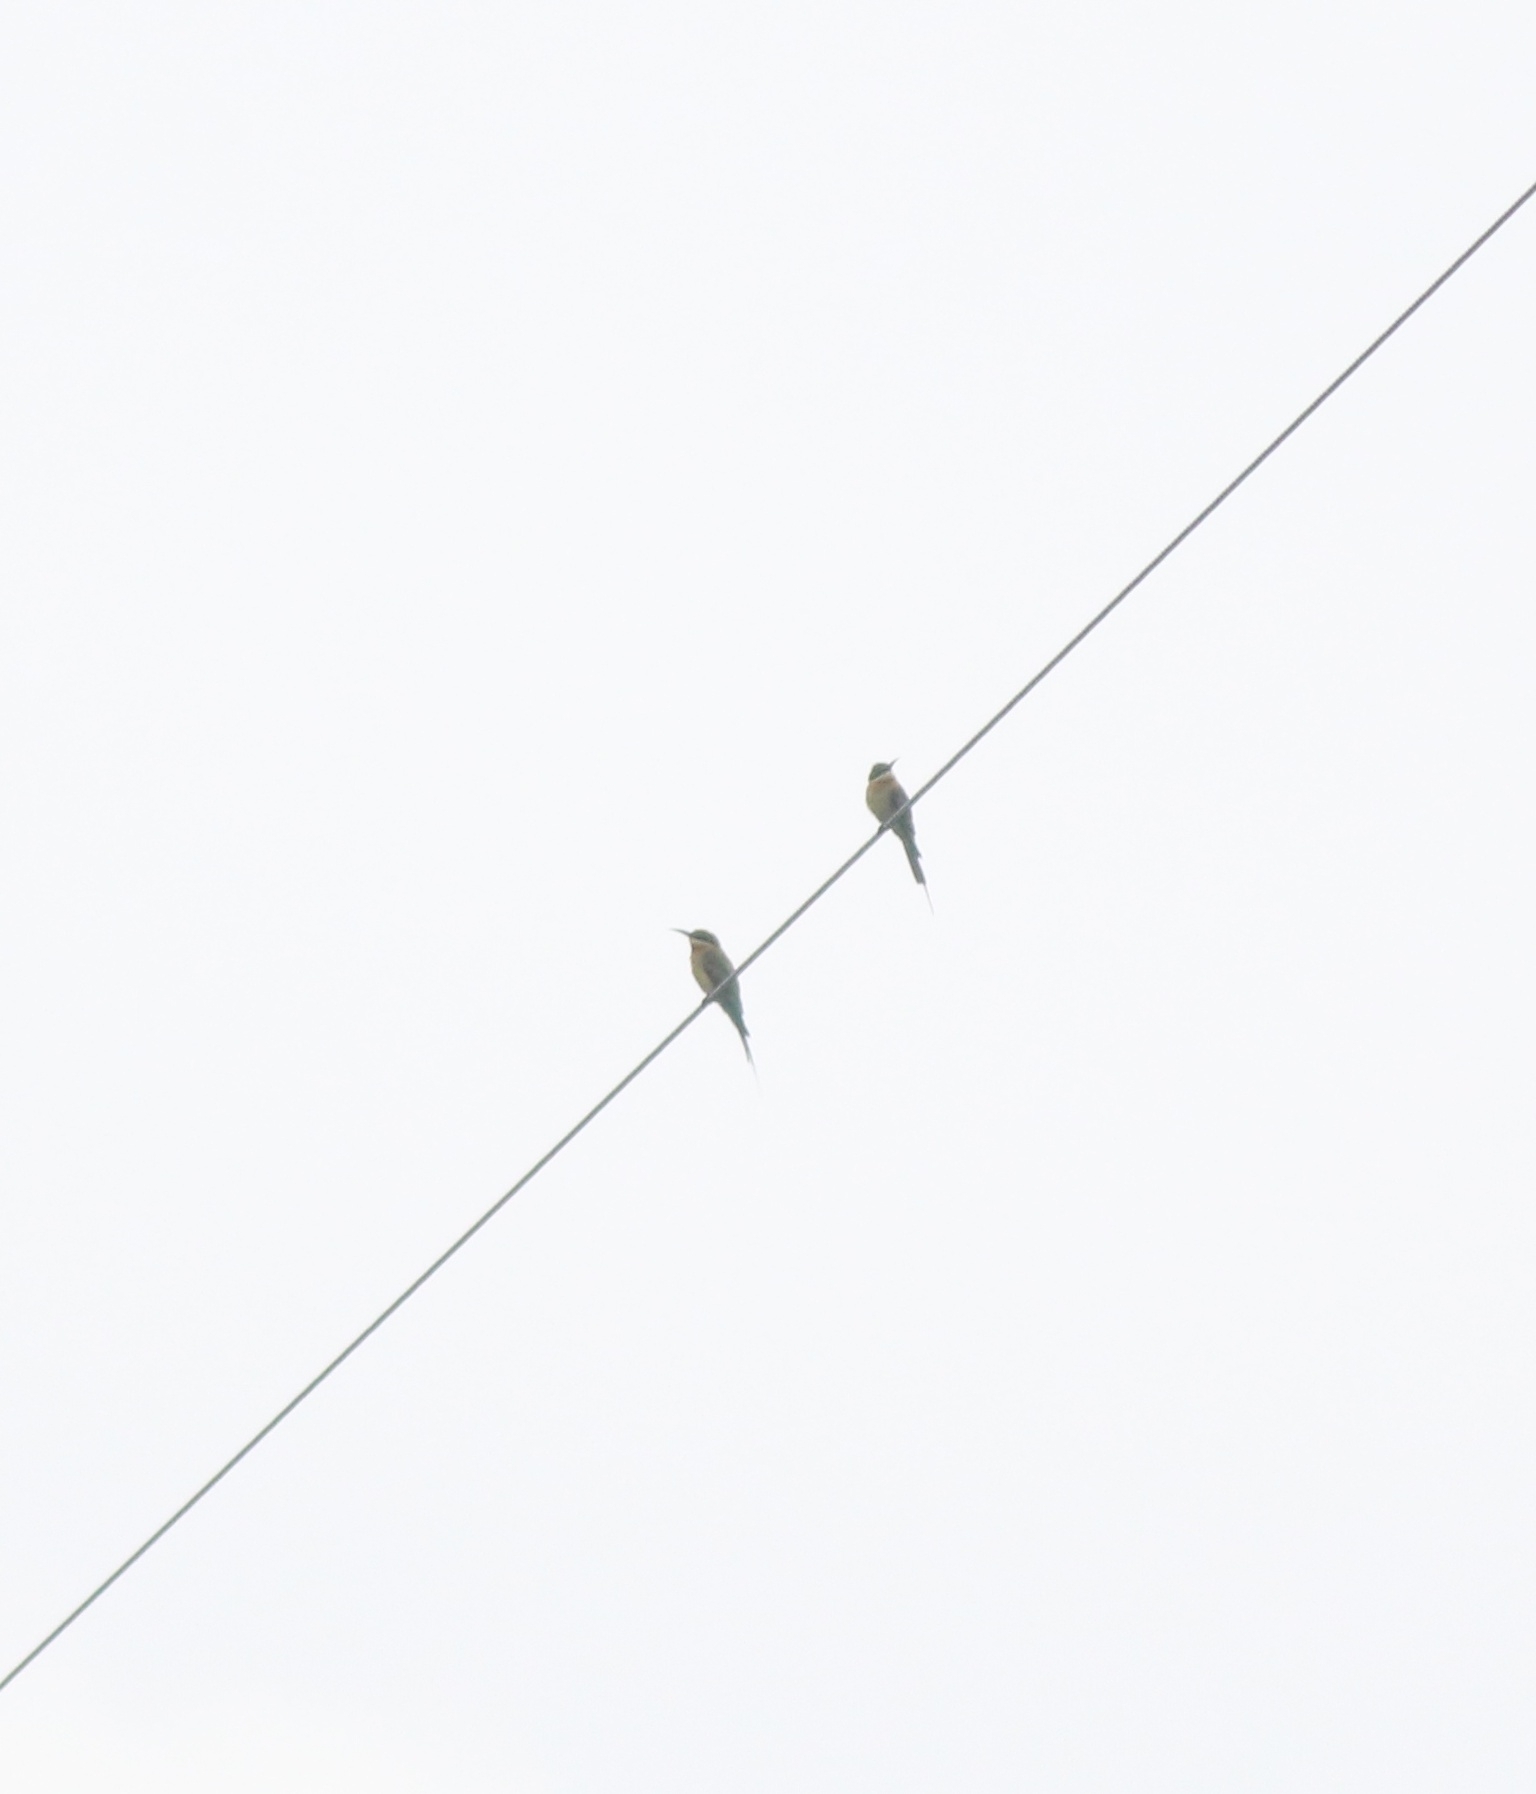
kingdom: Animalia
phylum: Chordata
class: Aves
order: Coraciiformes
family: Meropidae
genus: Merops
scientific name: Merops philippinus
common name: Blue-tailed bee-eater
